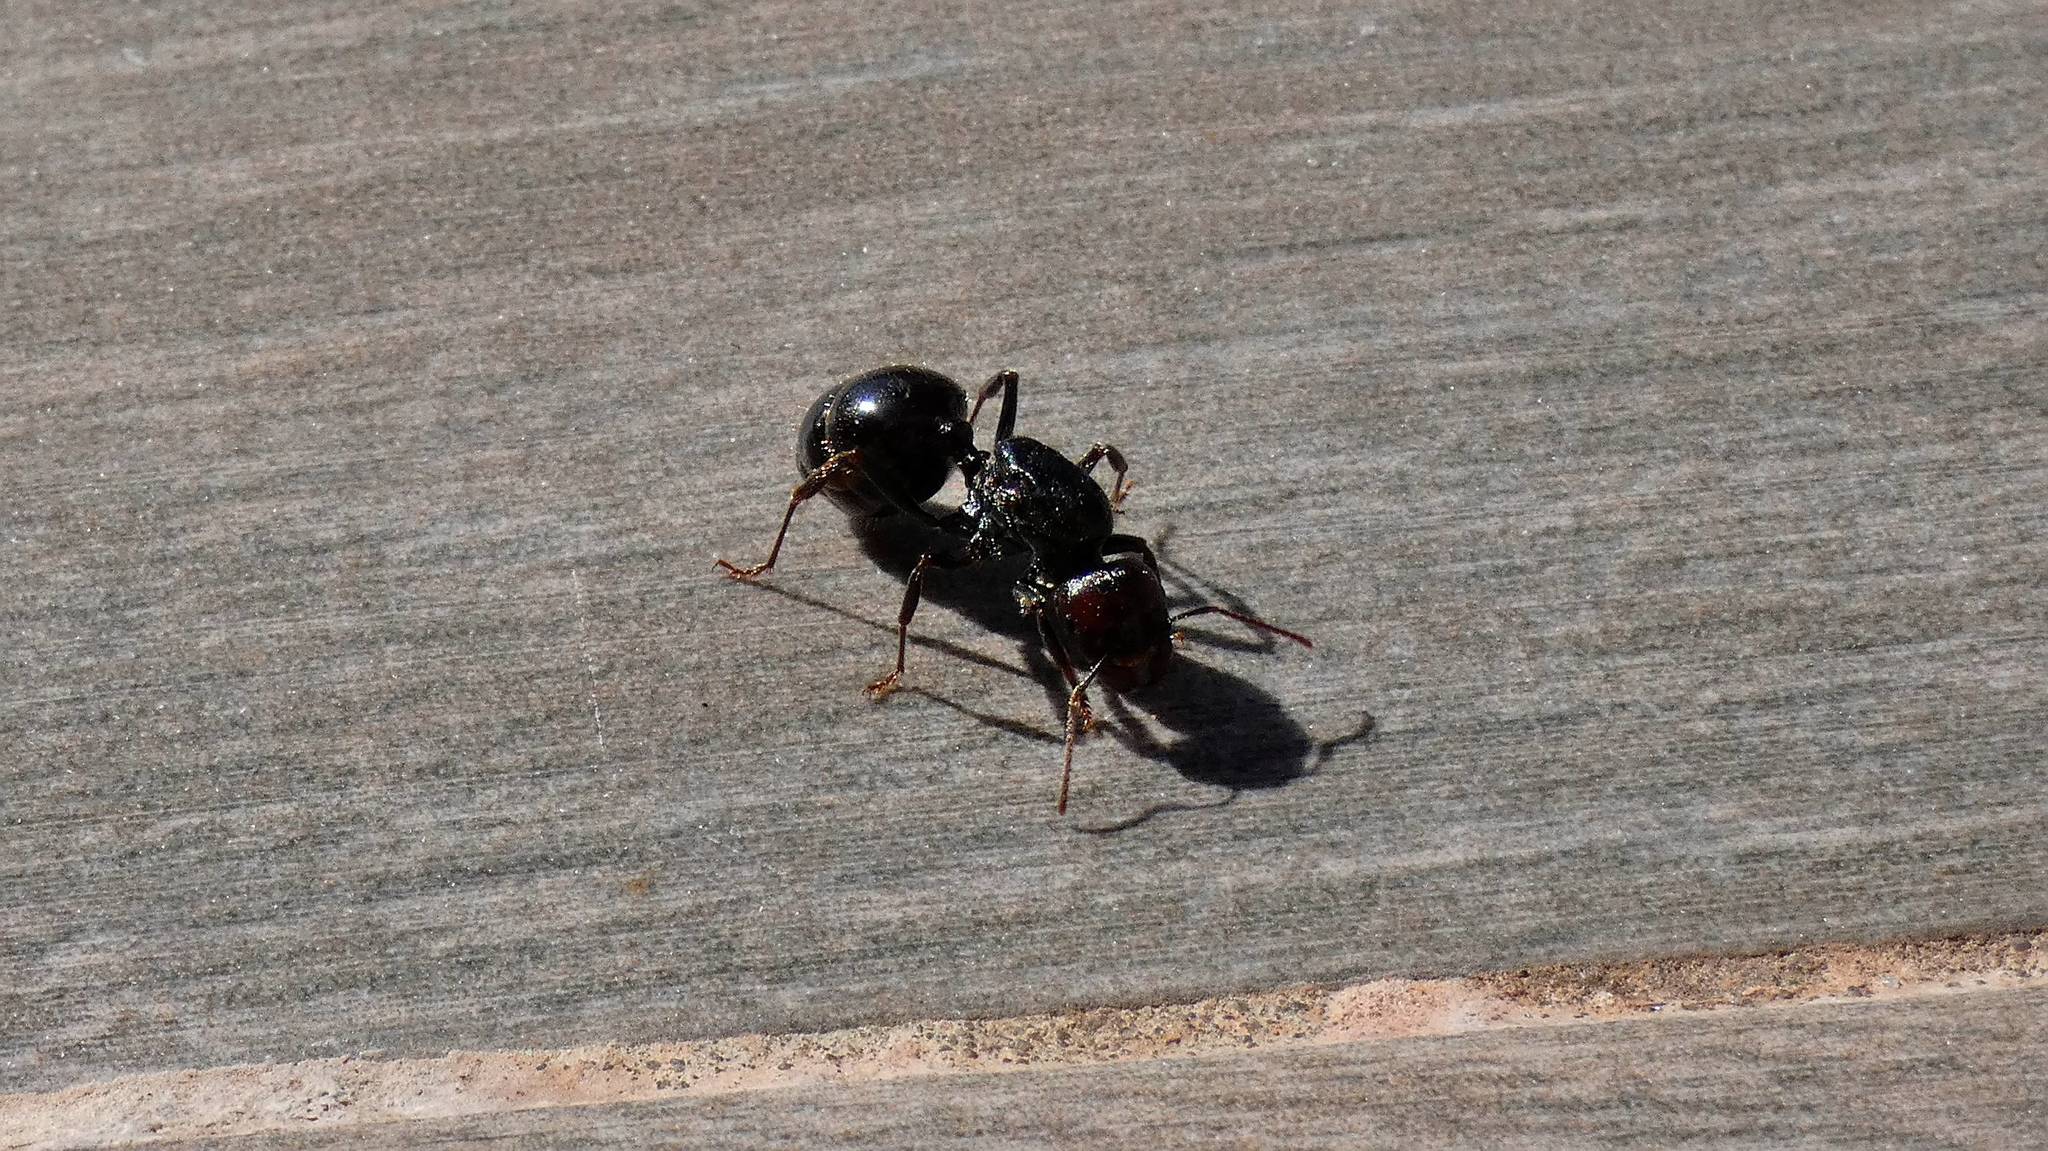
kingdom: Animalia
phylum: Arthropoda
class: Insecta
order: Hymenoptera
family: Formicidae
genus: Messor
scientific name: Messor barbarus
